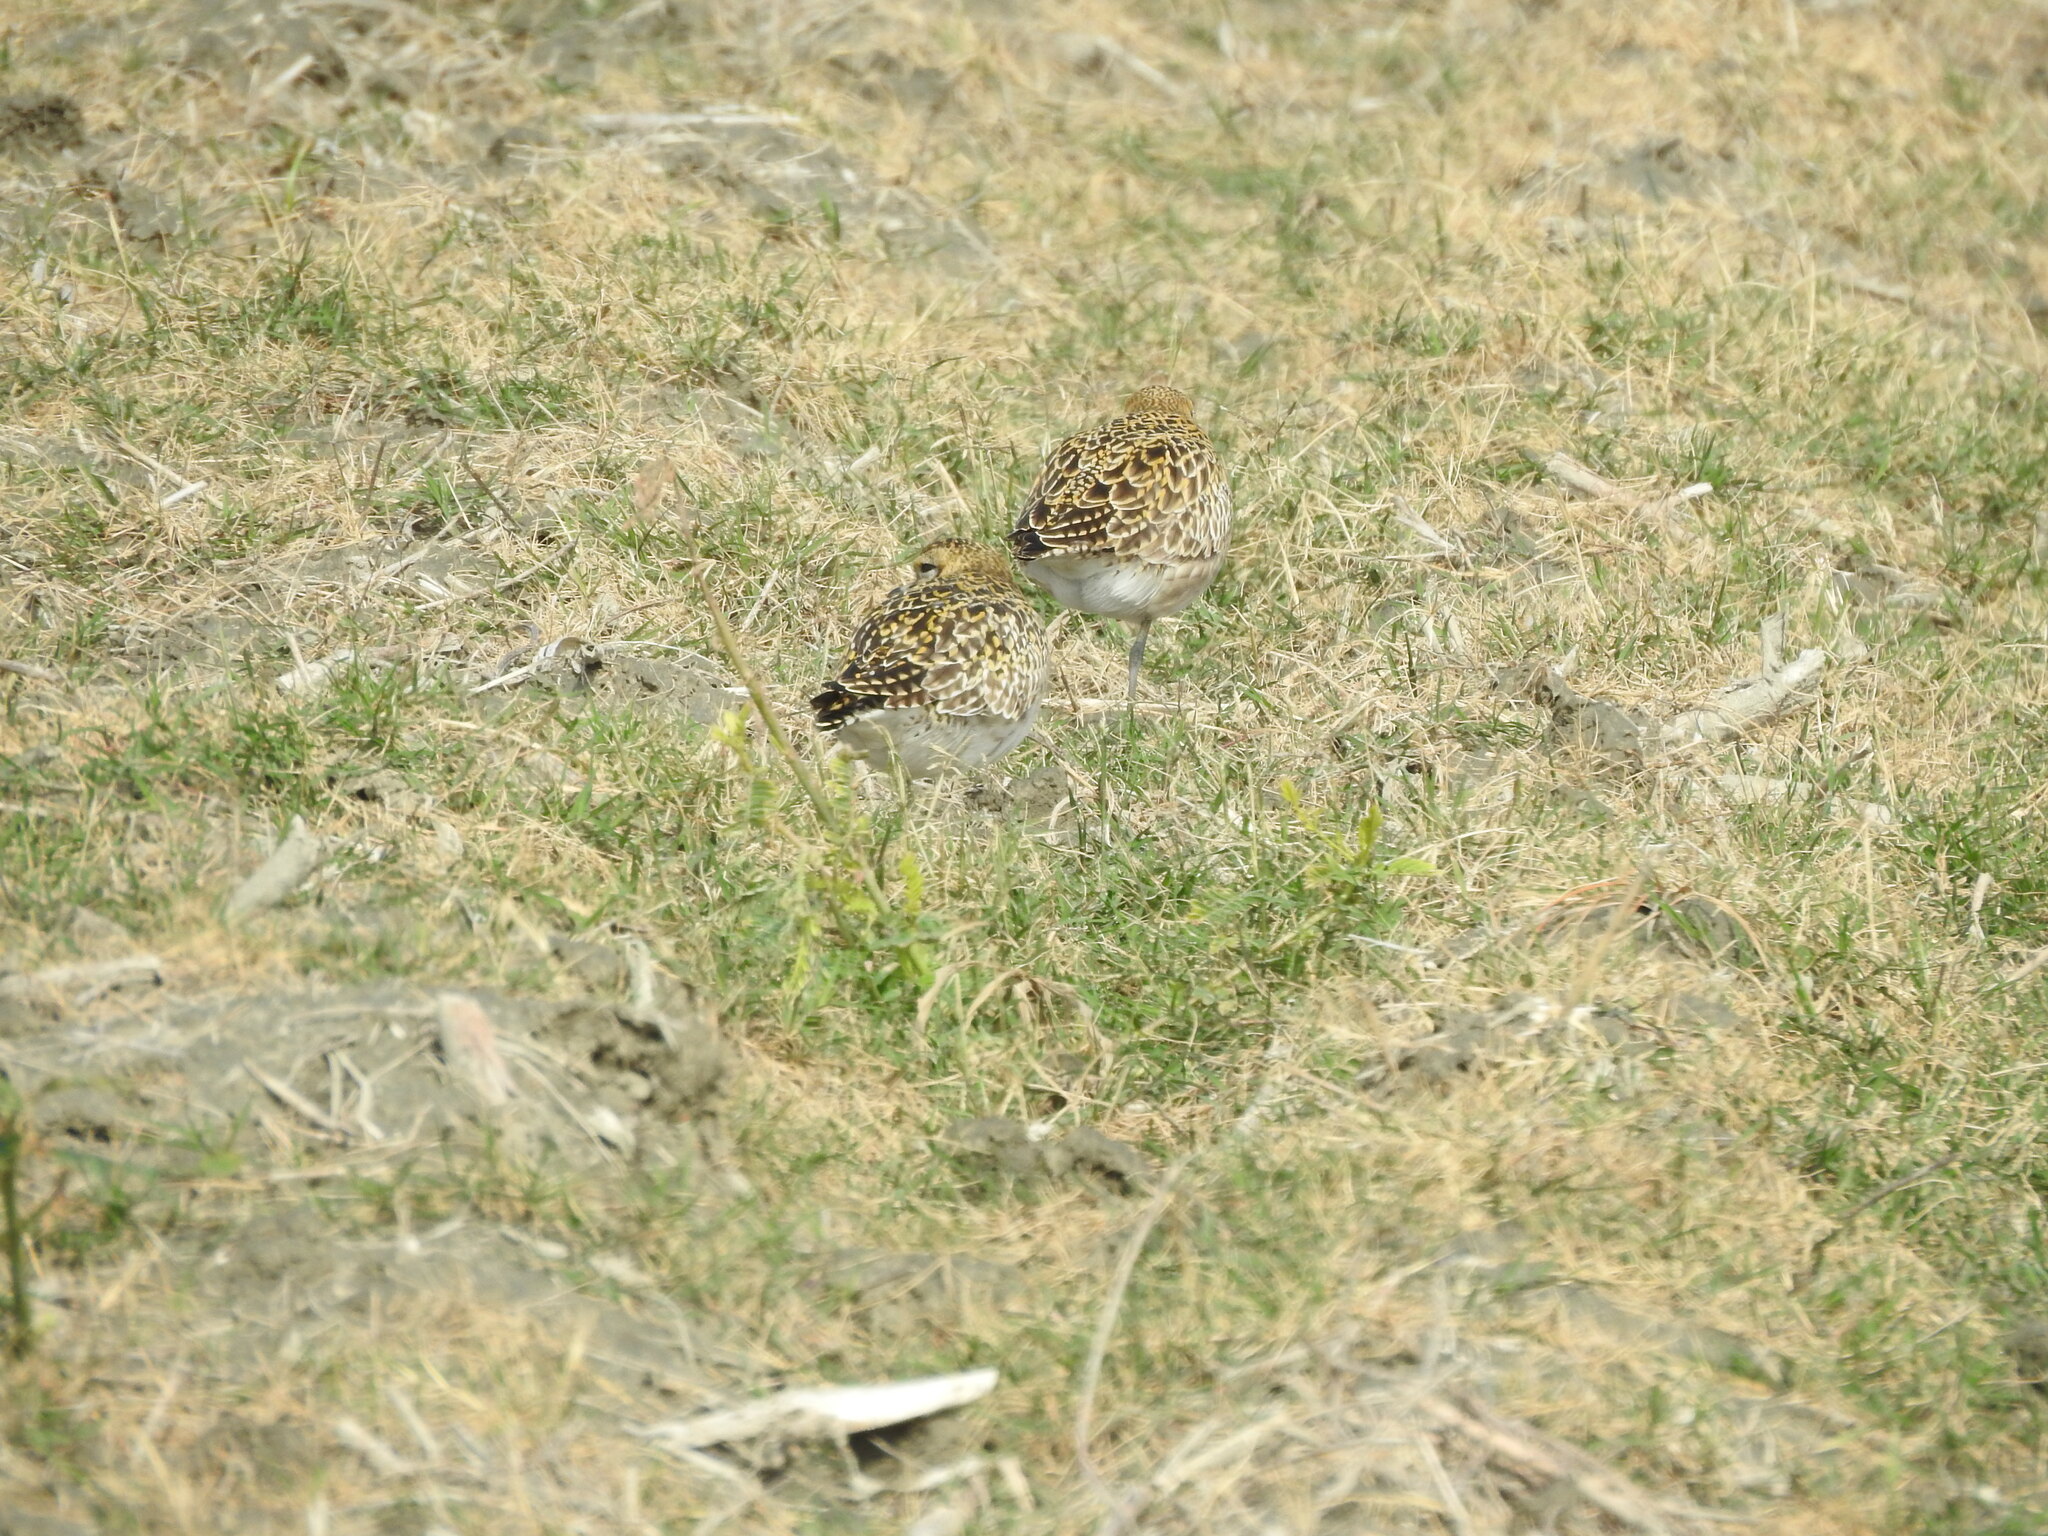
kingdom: Animalia
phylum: Chordata
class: Aves
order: Charadriiformes
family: Charadriidae
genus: Pluvialis
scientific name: Pluvialis fulva
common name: Pacific golden plover
